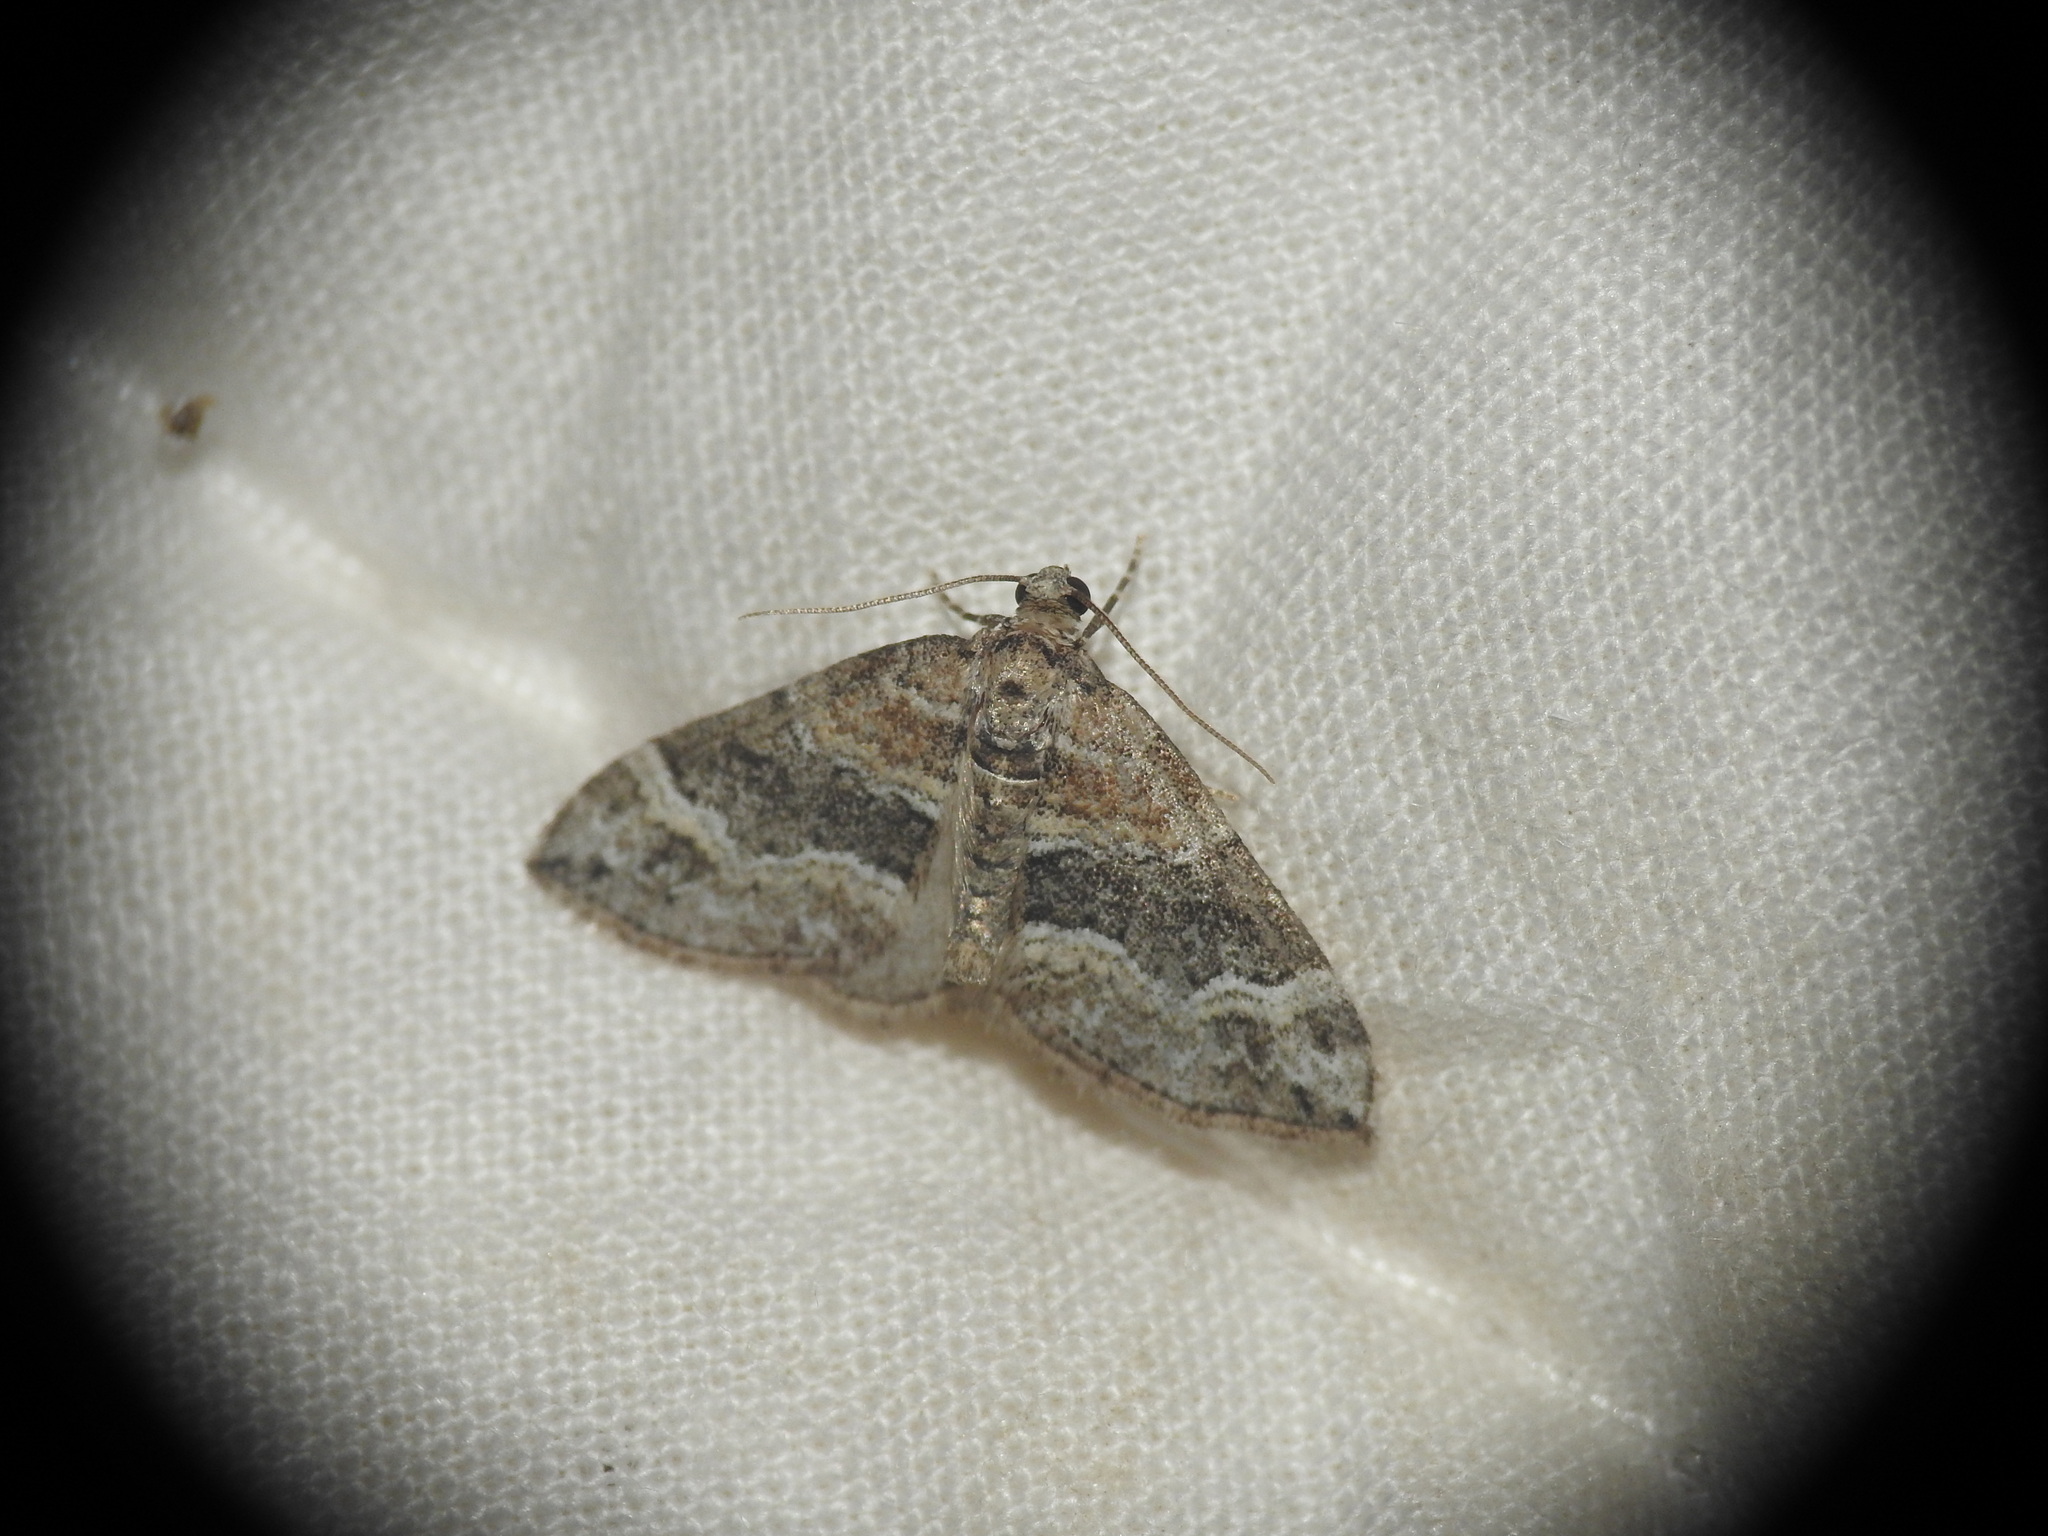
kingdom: Animalia
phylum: Arthropoda
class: Insecta
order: Lepidoptera
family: Geometridae
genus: Perizoma
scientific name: Perizoma bifaciata
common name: Barred rivulet
